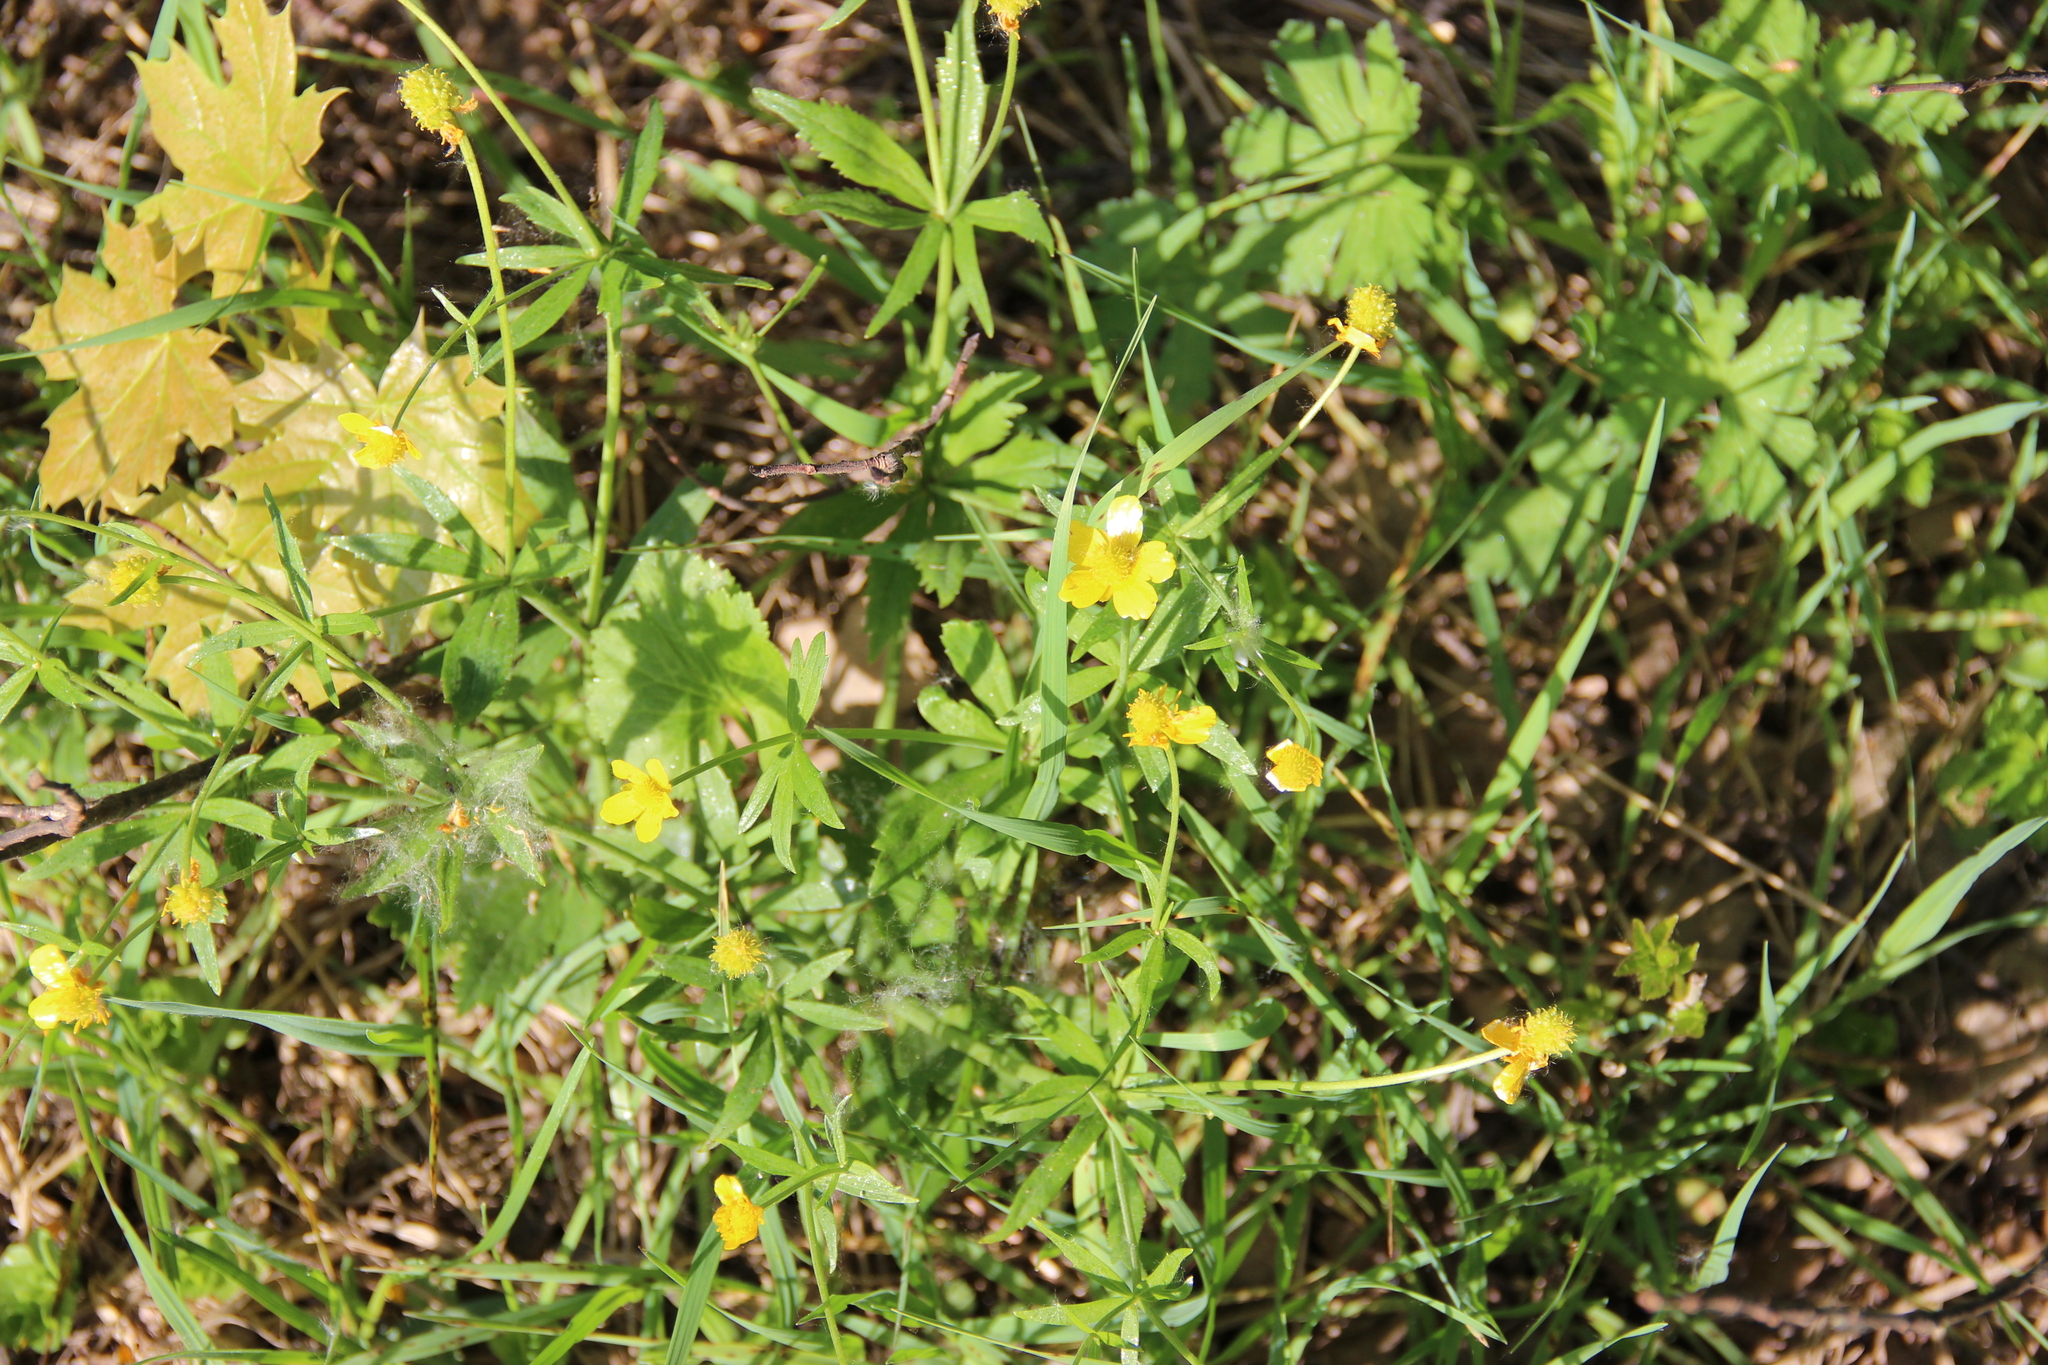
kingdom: Plantae
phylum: Tracheophyta
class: Magnoliopsida
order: Ranunculales
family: Ranunculaceae
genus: Ranunculus
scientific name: Ranunculus cassubicus
